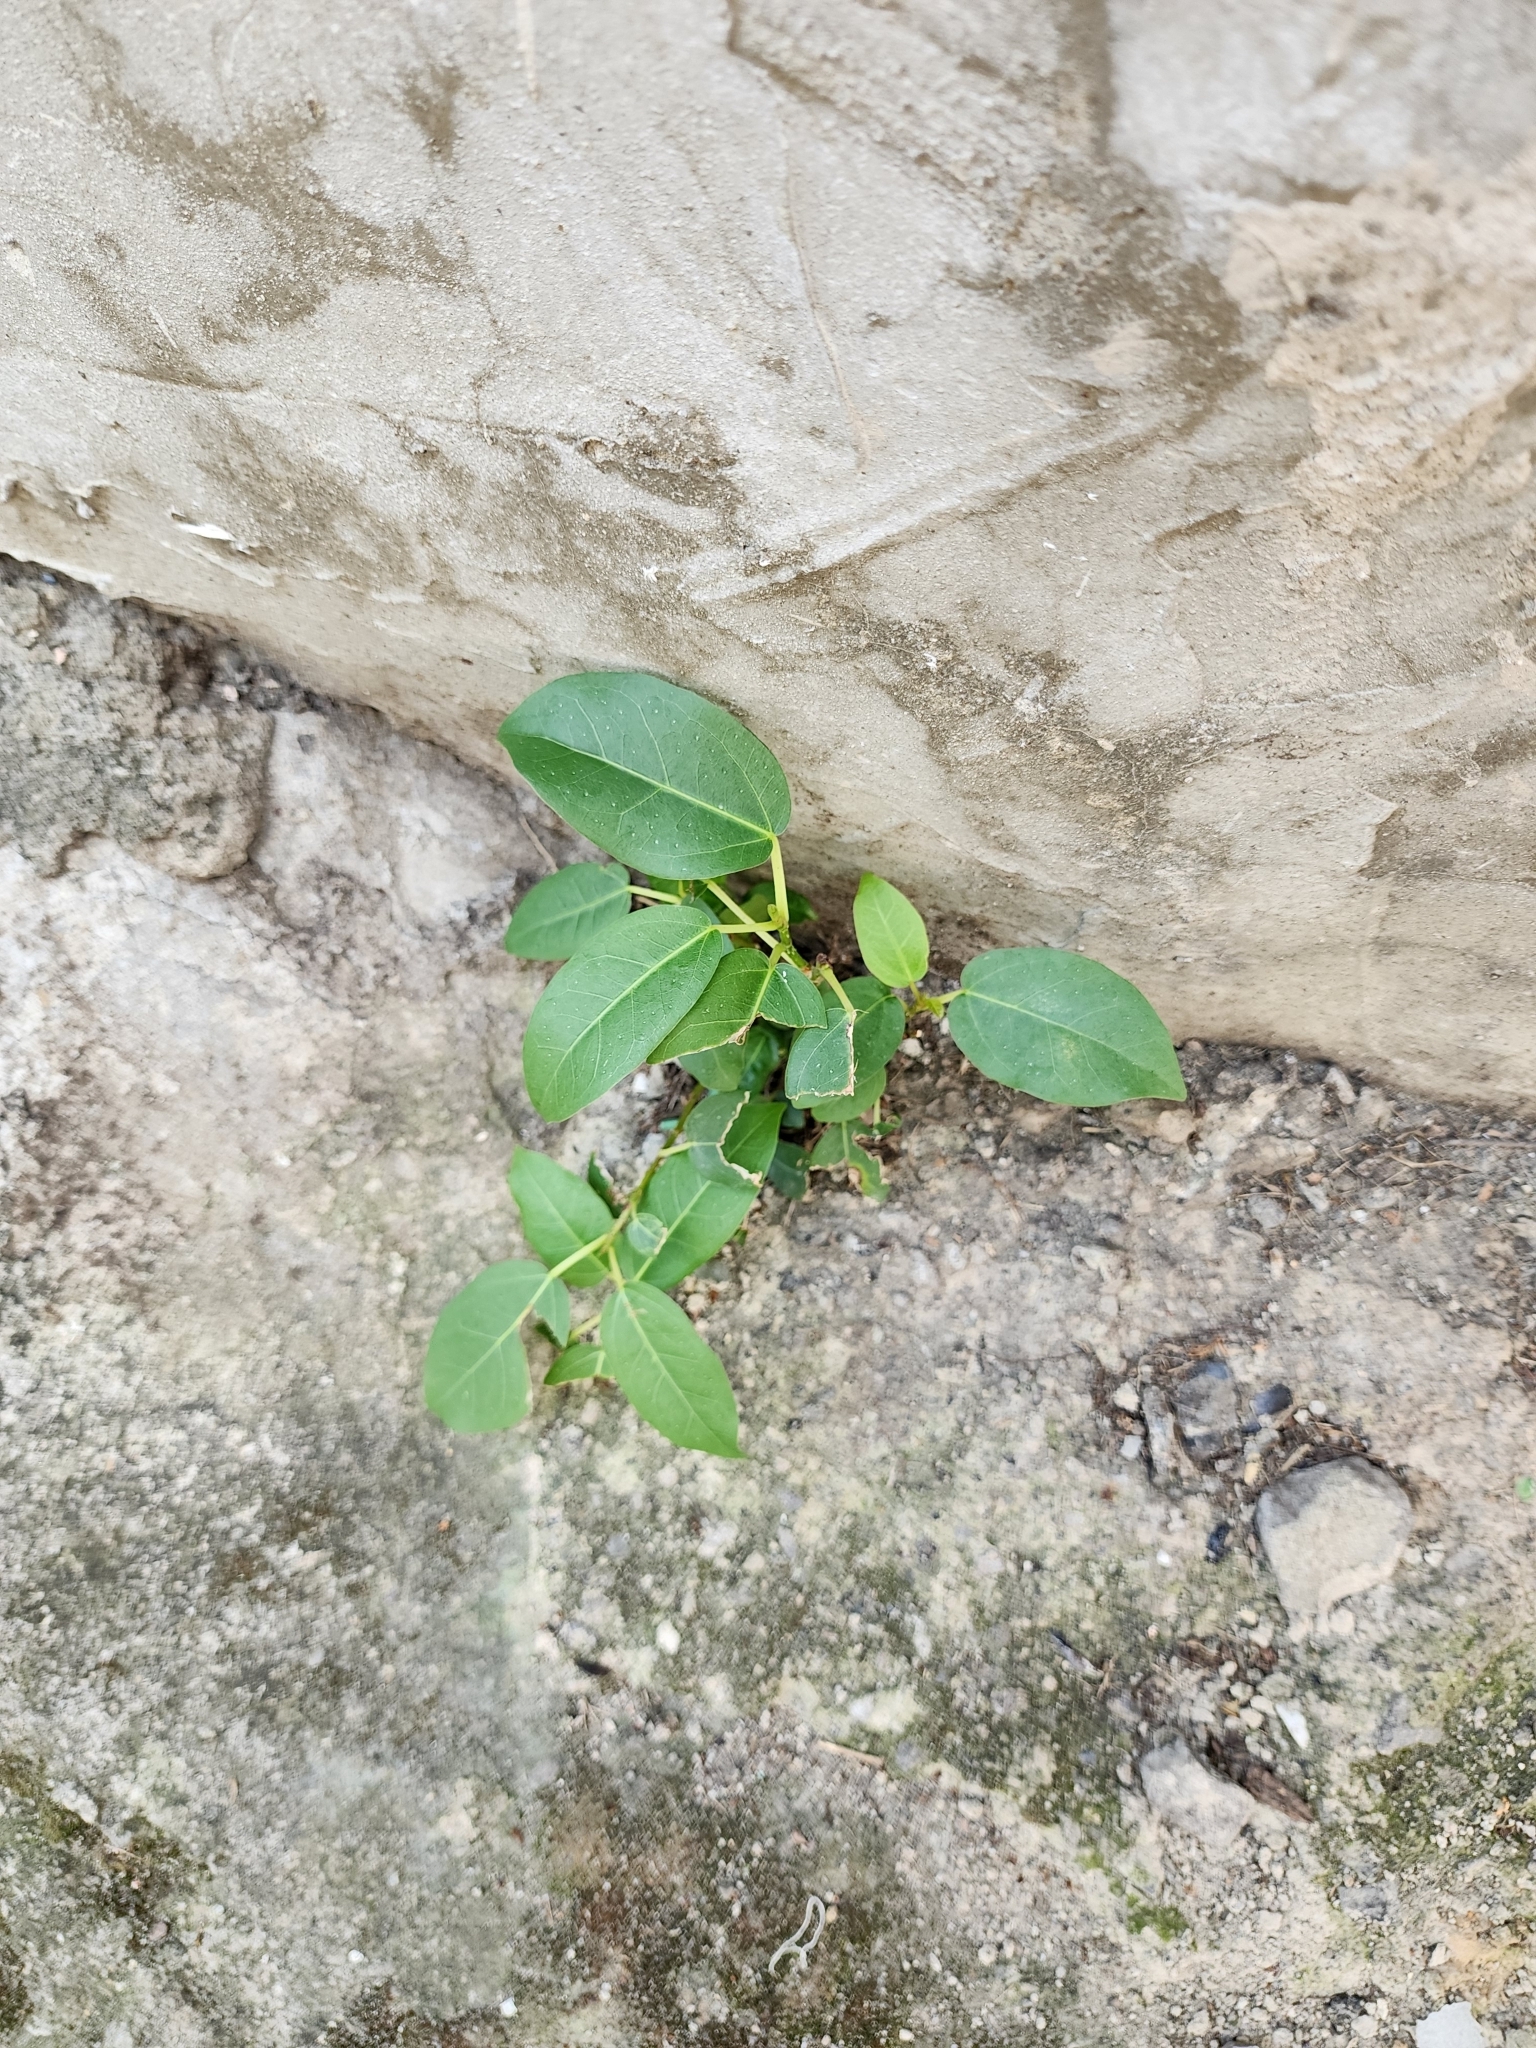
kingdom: Plantae
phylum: Tracheophyta
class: Magnoliopsida
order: Rosales
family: Moraceae
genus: Ficus
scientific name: Ficus subpisocarpa
